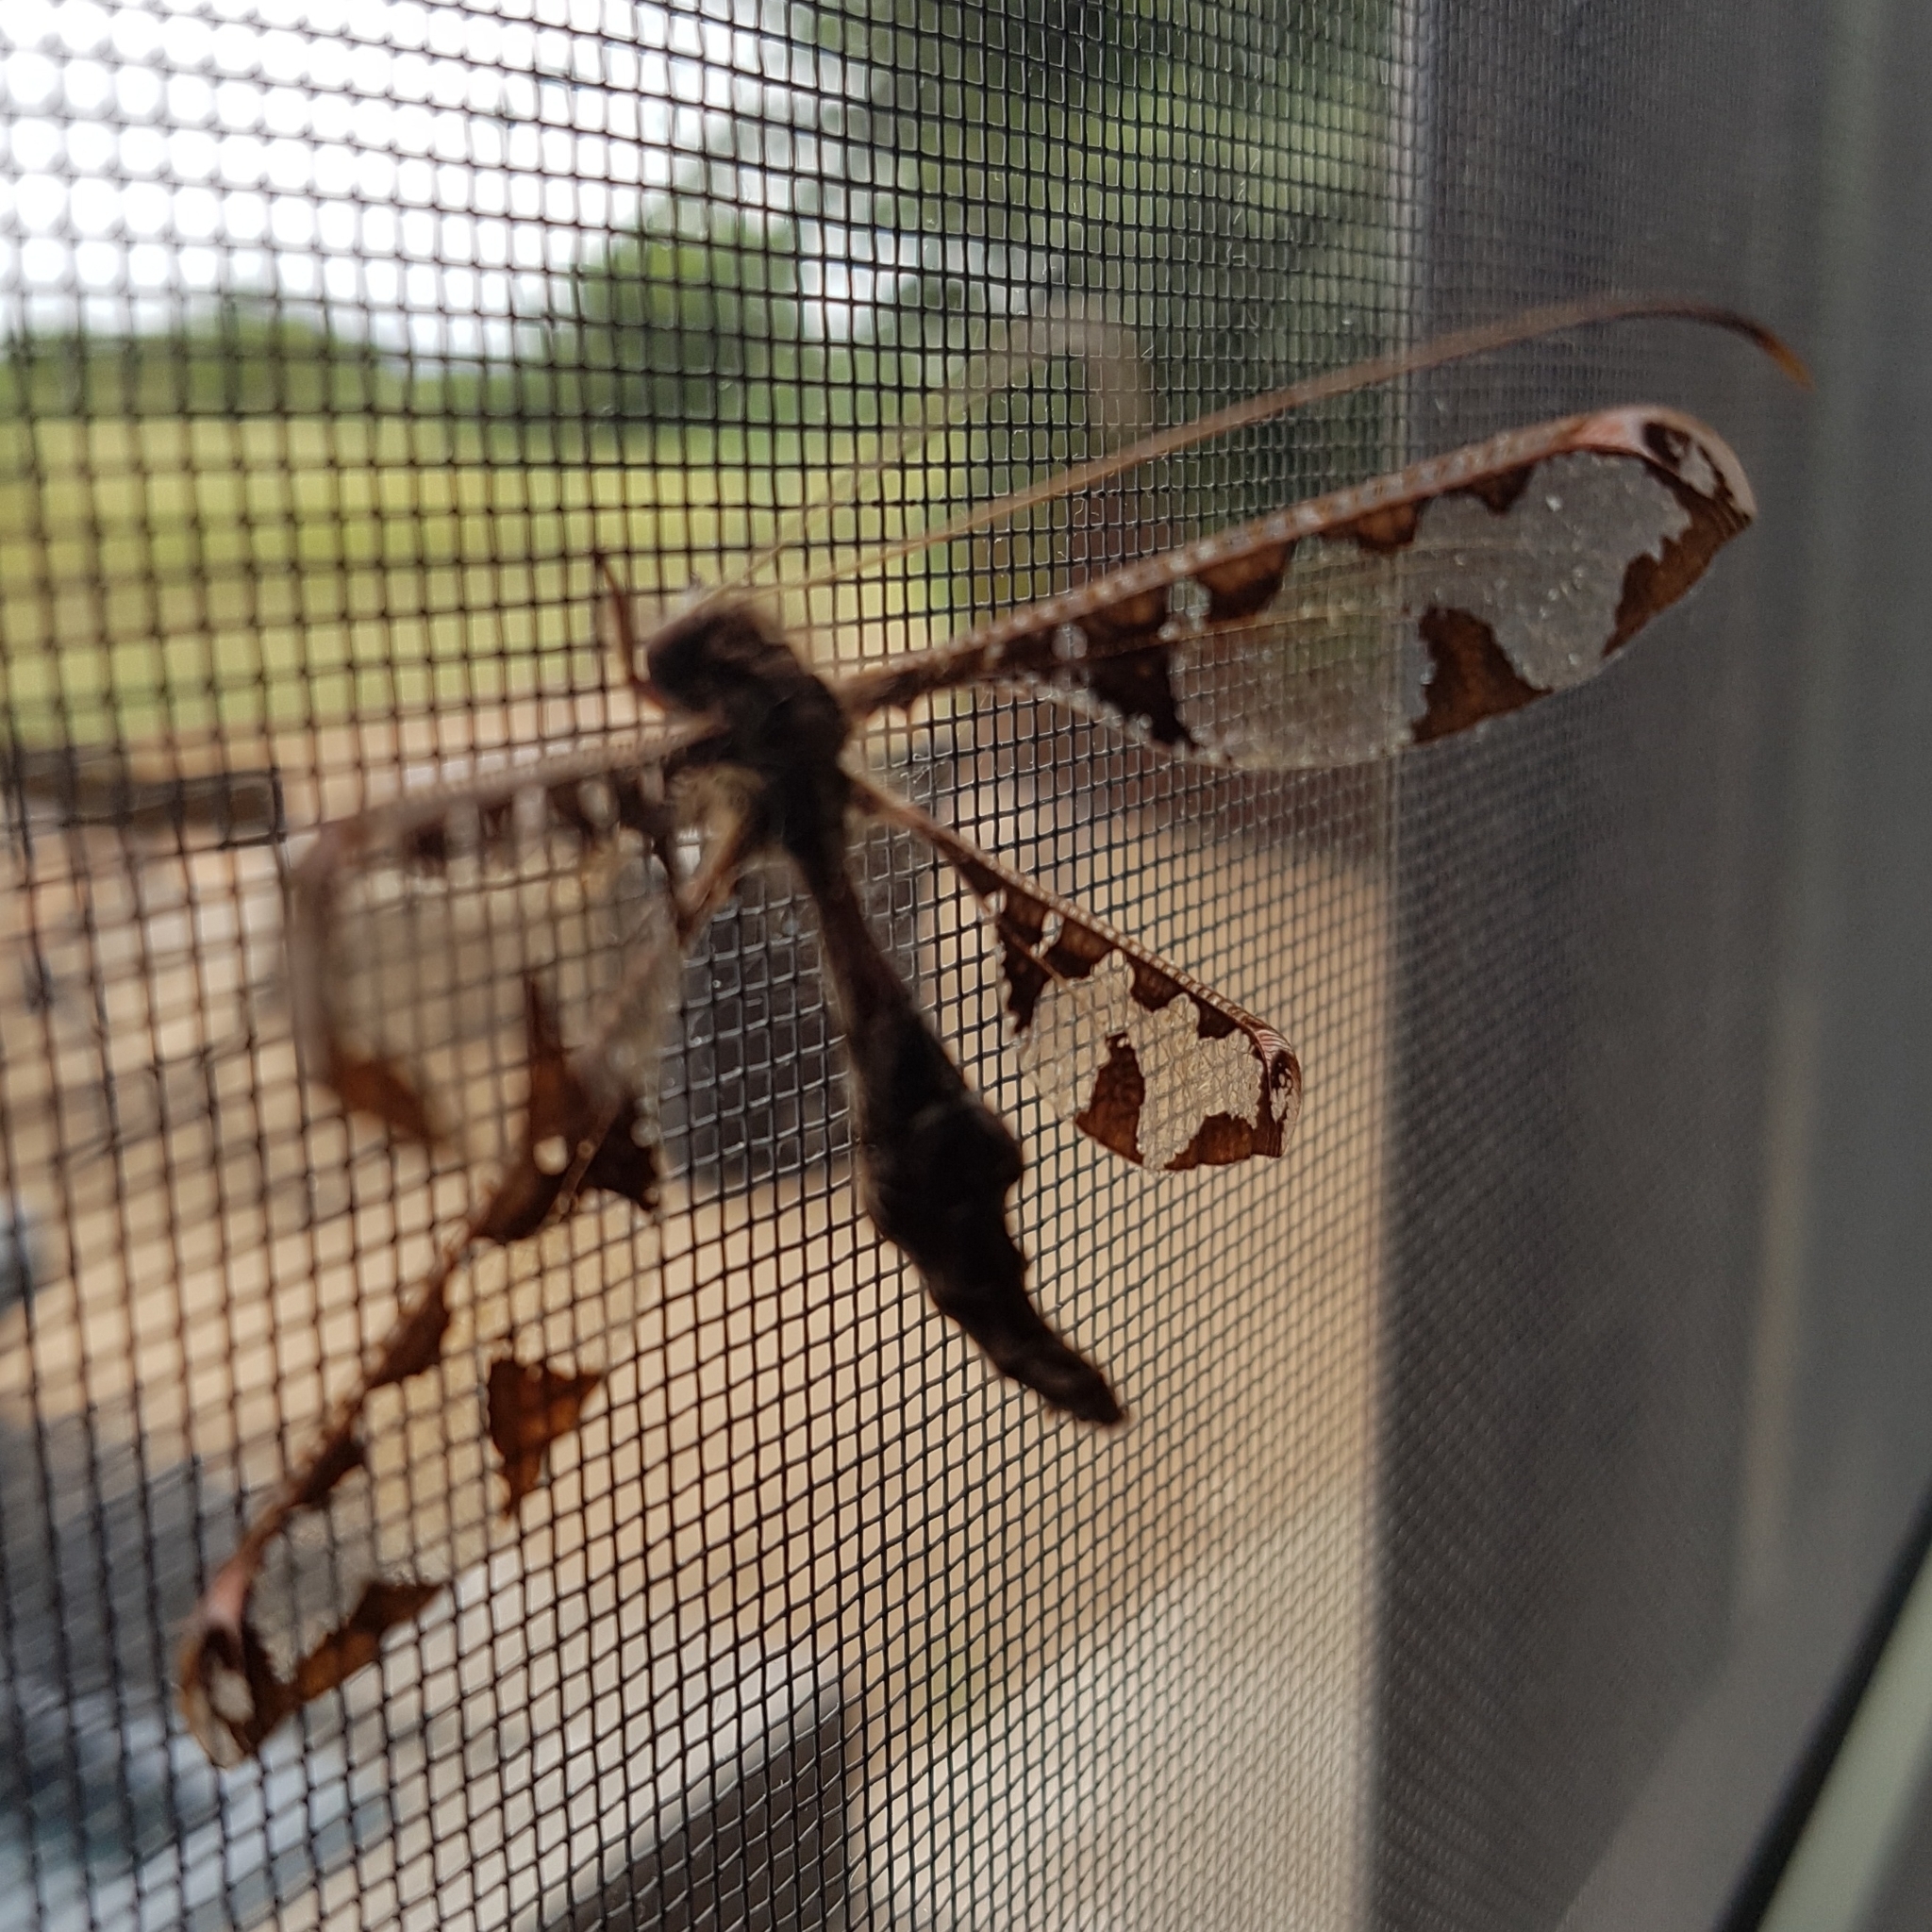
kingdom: Animalia
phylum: Arthropoda
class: Insecta
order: Neuroptera
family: Ascalaphidae
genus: Tmesibasis
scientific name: Tmesibasis lacerata
